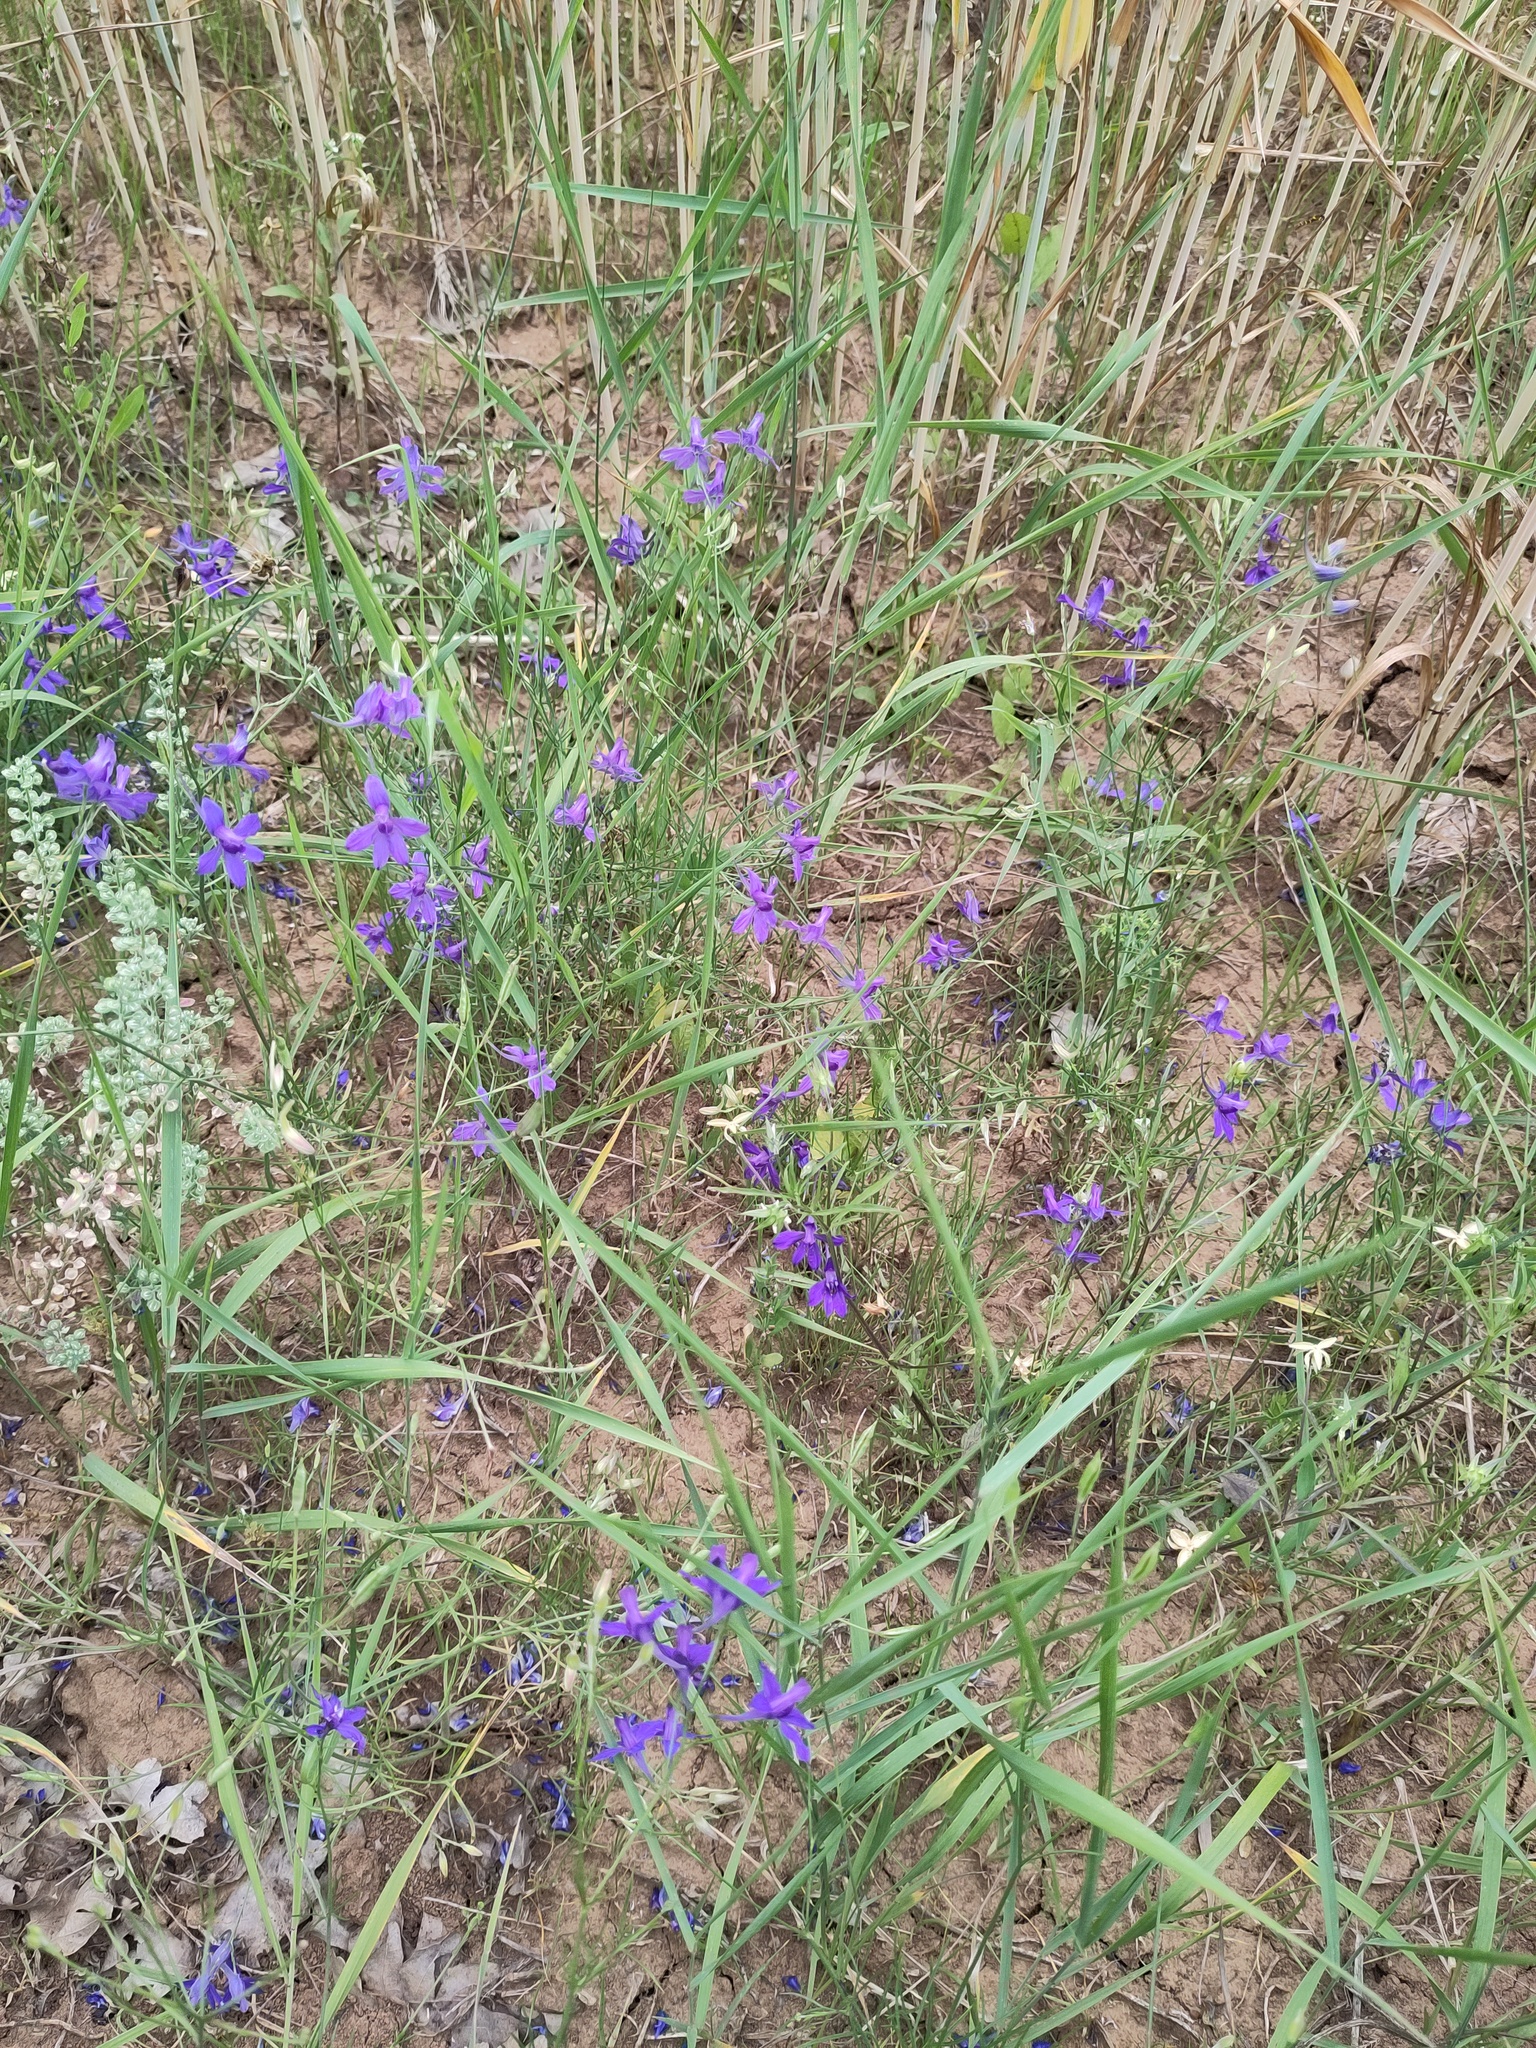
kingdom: Plantae
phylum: Tracheophyta
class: Magnoliopsida
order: Malpighiales
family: Violaceae
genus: Viola
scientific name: Viola arvensis
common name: Field pansy
